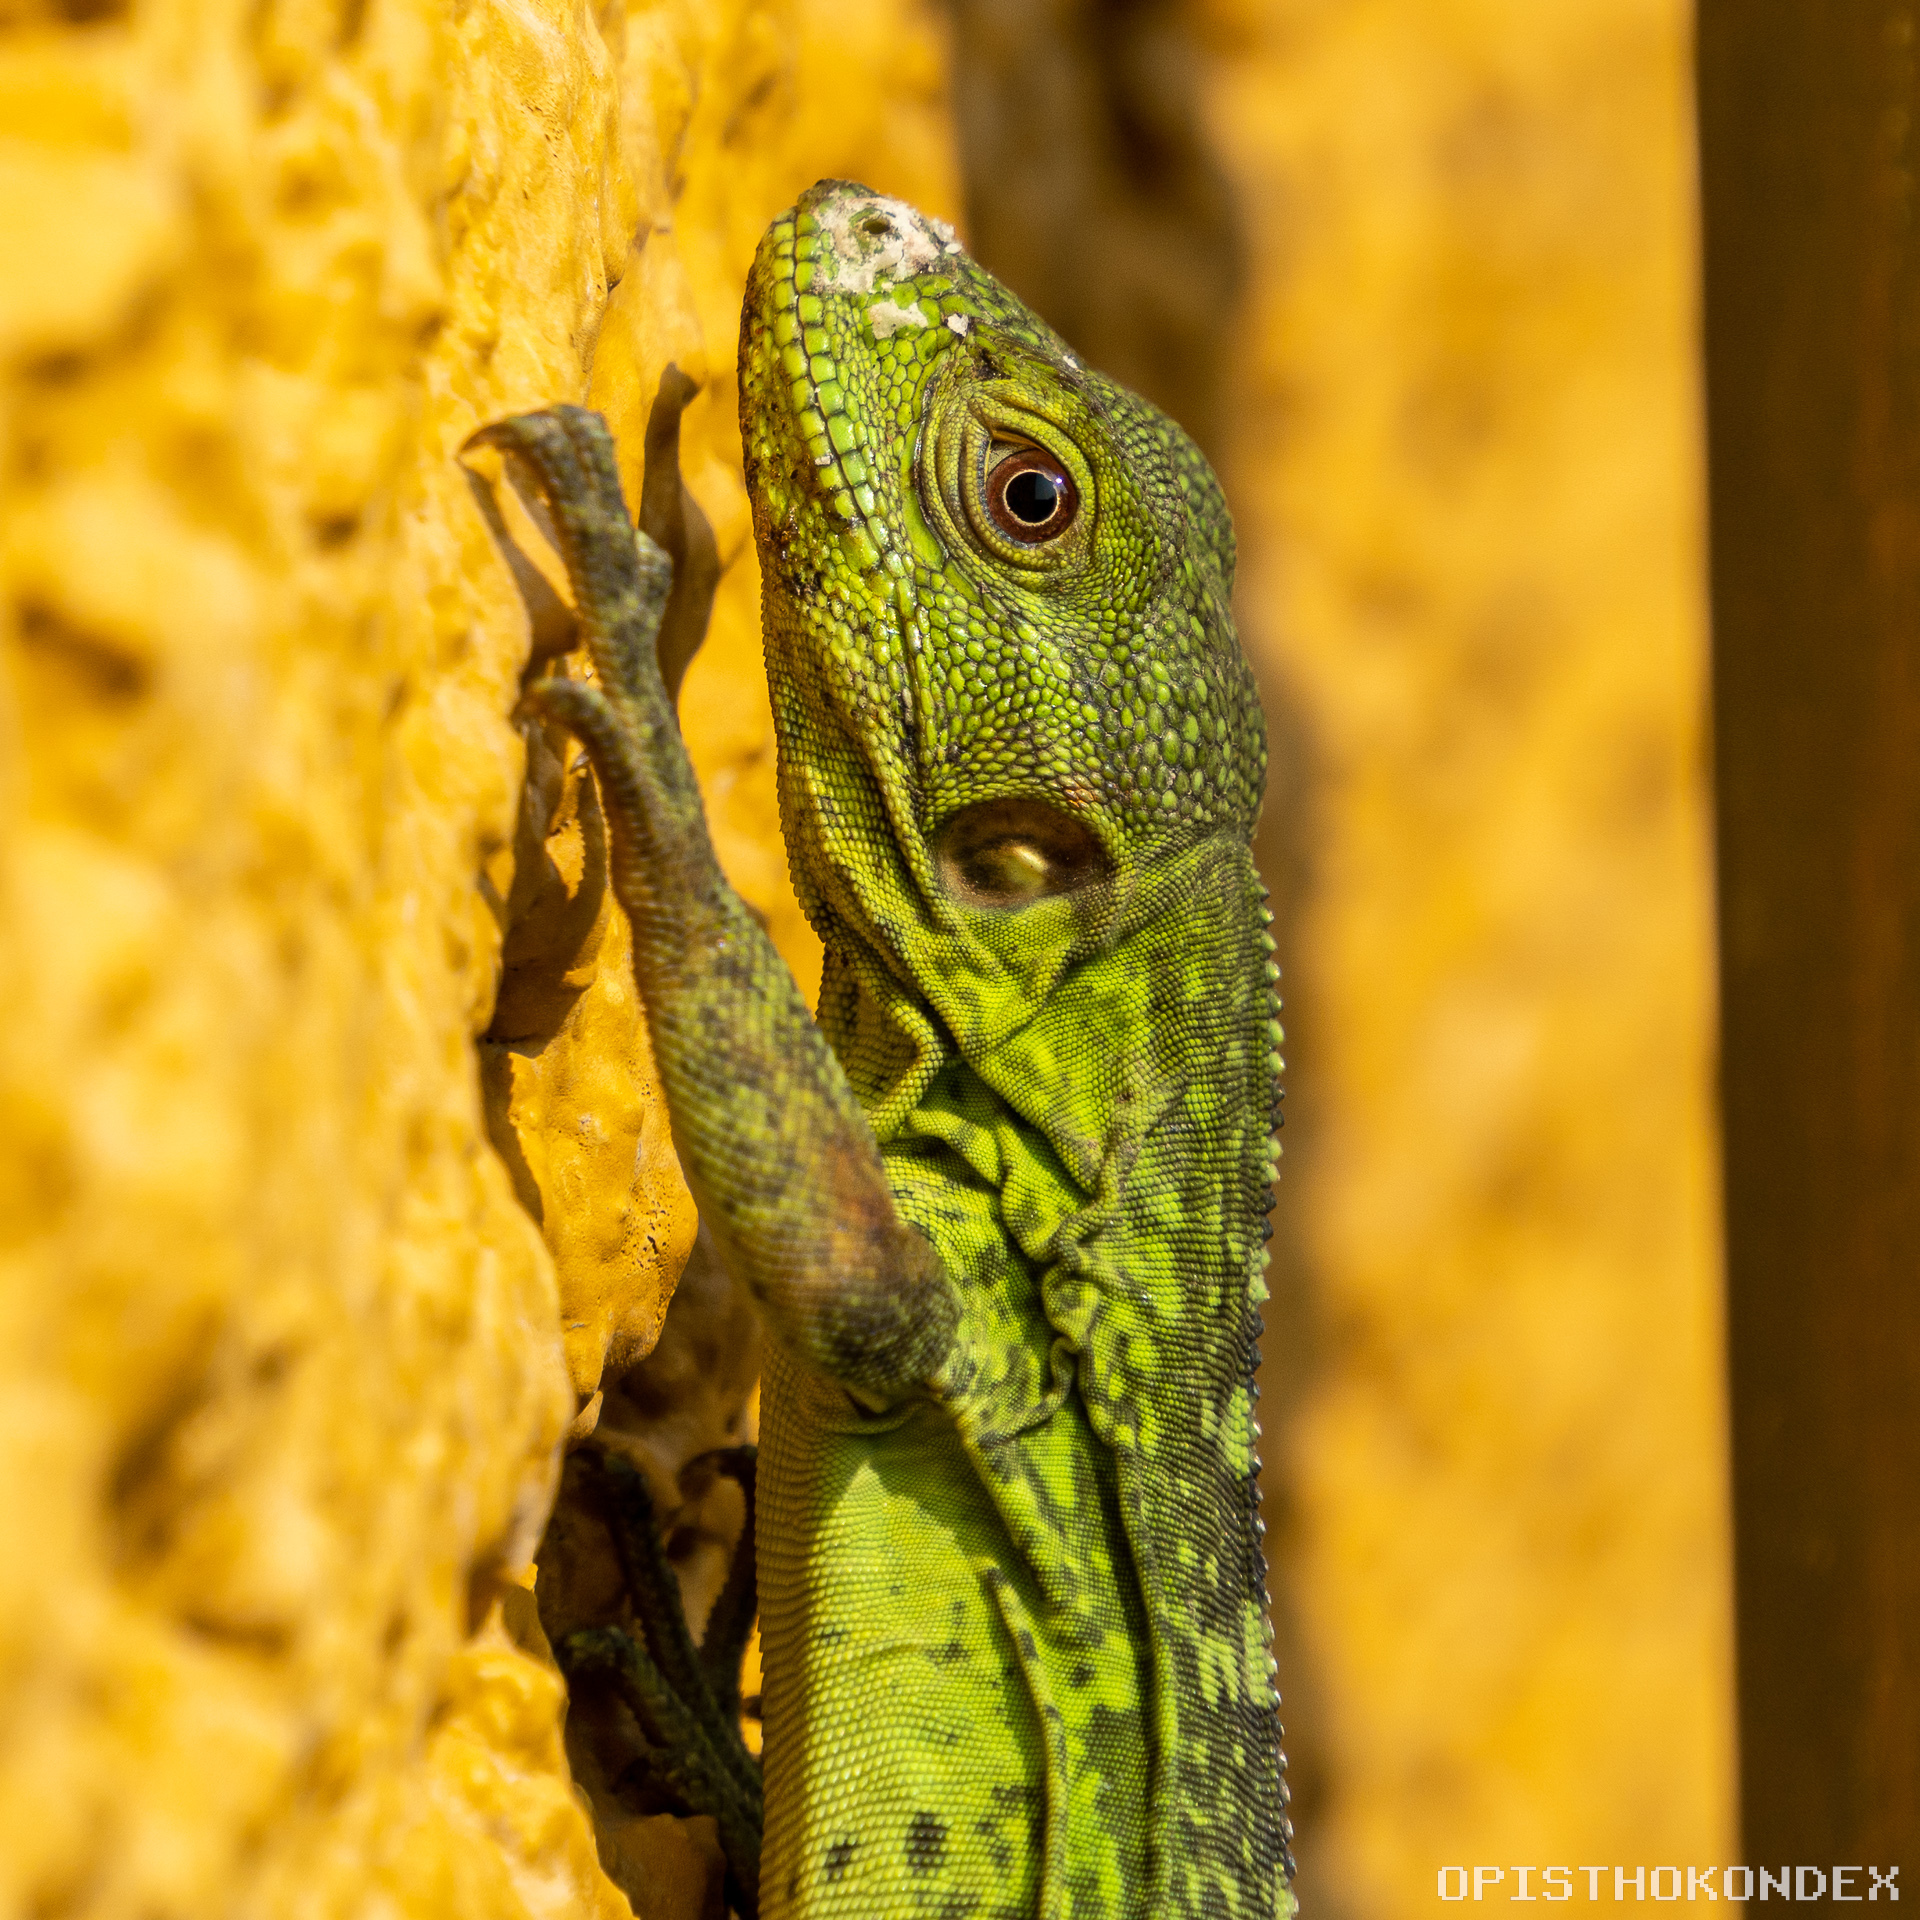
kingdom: Animalia
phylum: Chordata
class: Squamata
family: Iguanidae
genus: Ctenosaura
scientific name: Ctenosaura pectinata
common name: Guerreran spiny-tailed iguana
